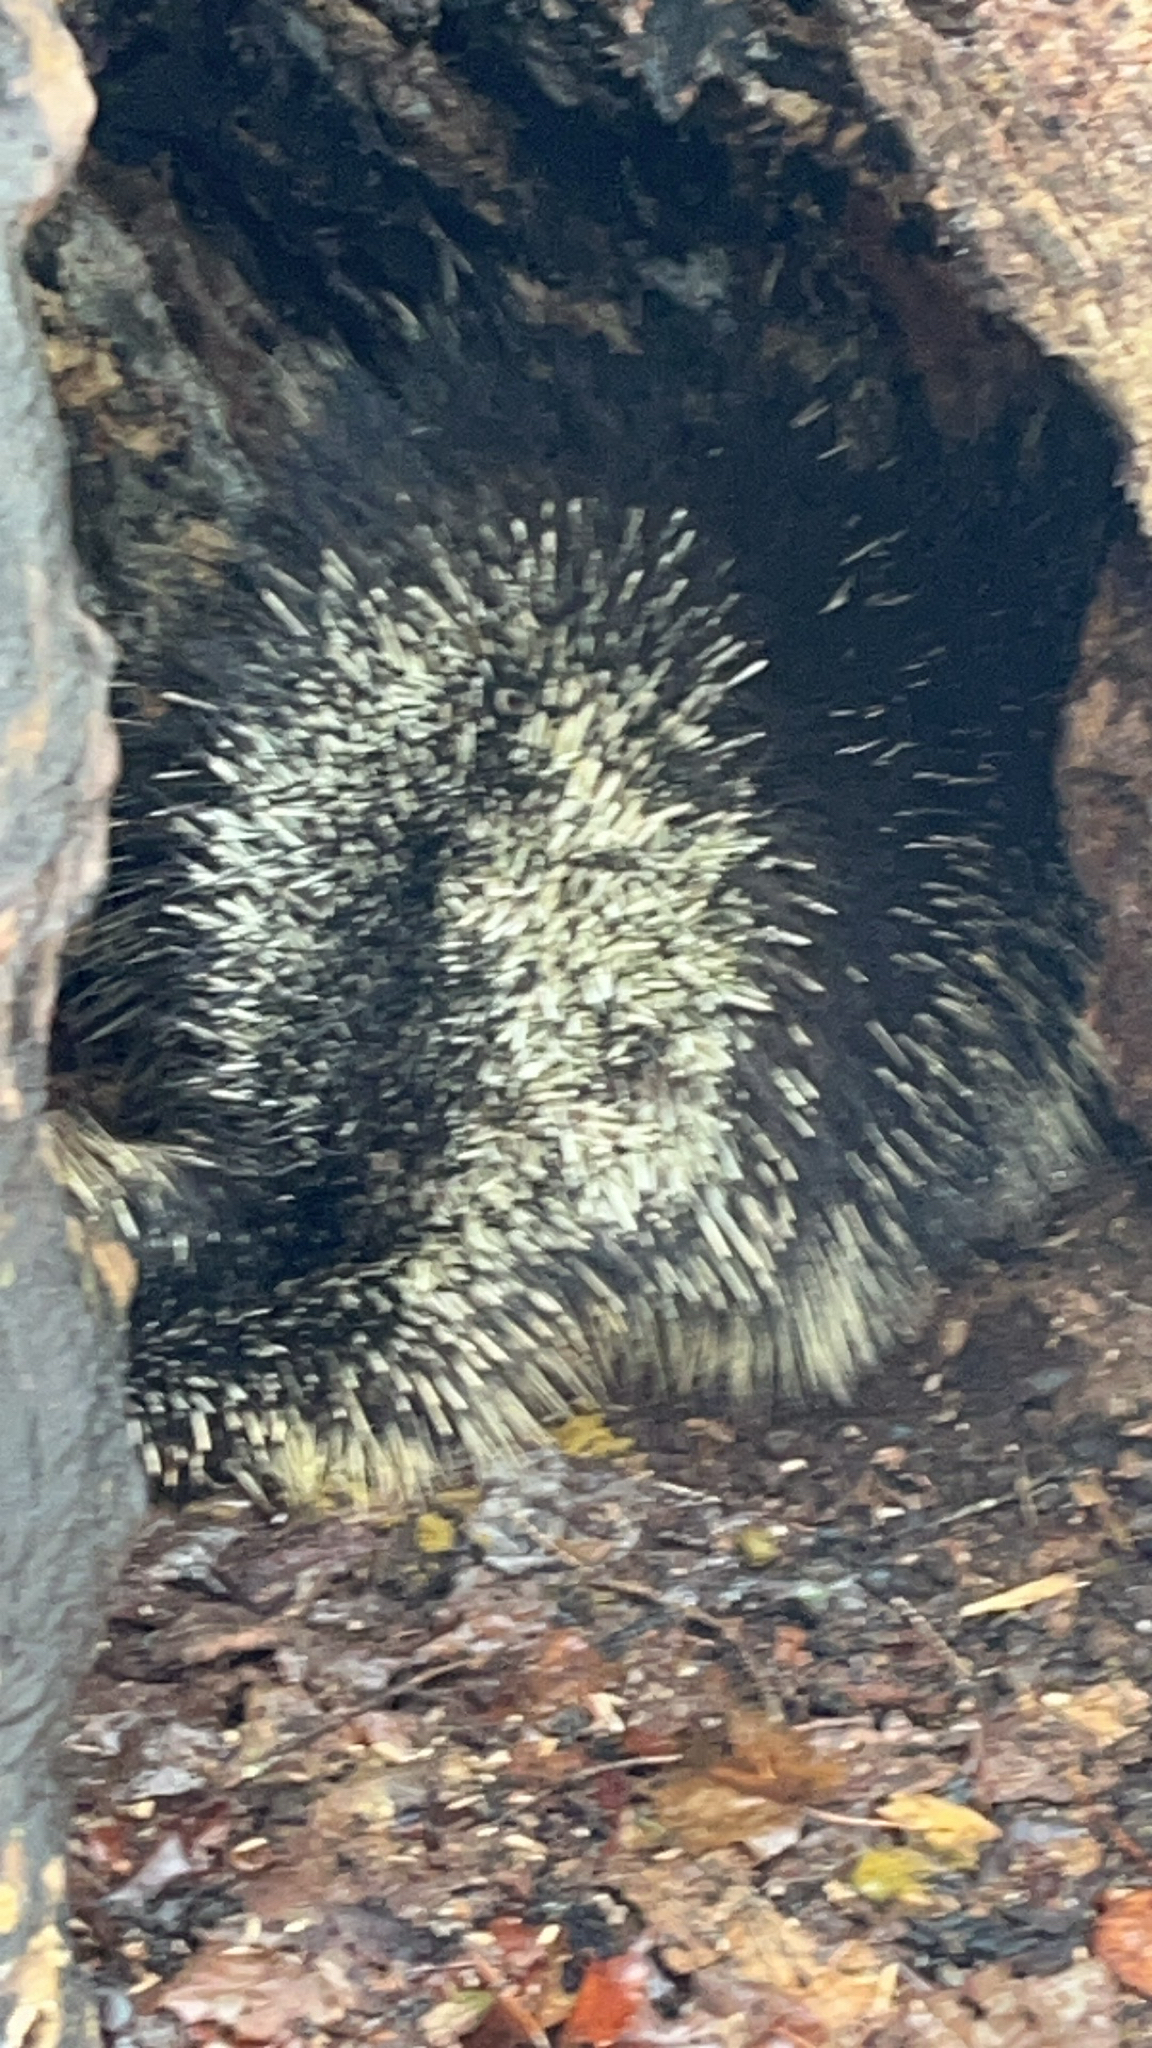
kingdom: Animalia
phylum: Chordata
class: Mammalia
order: Rodentia
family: Erethizontidae
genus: Erethizon
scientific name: Erethizon dorsatus
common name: North american porcupine
